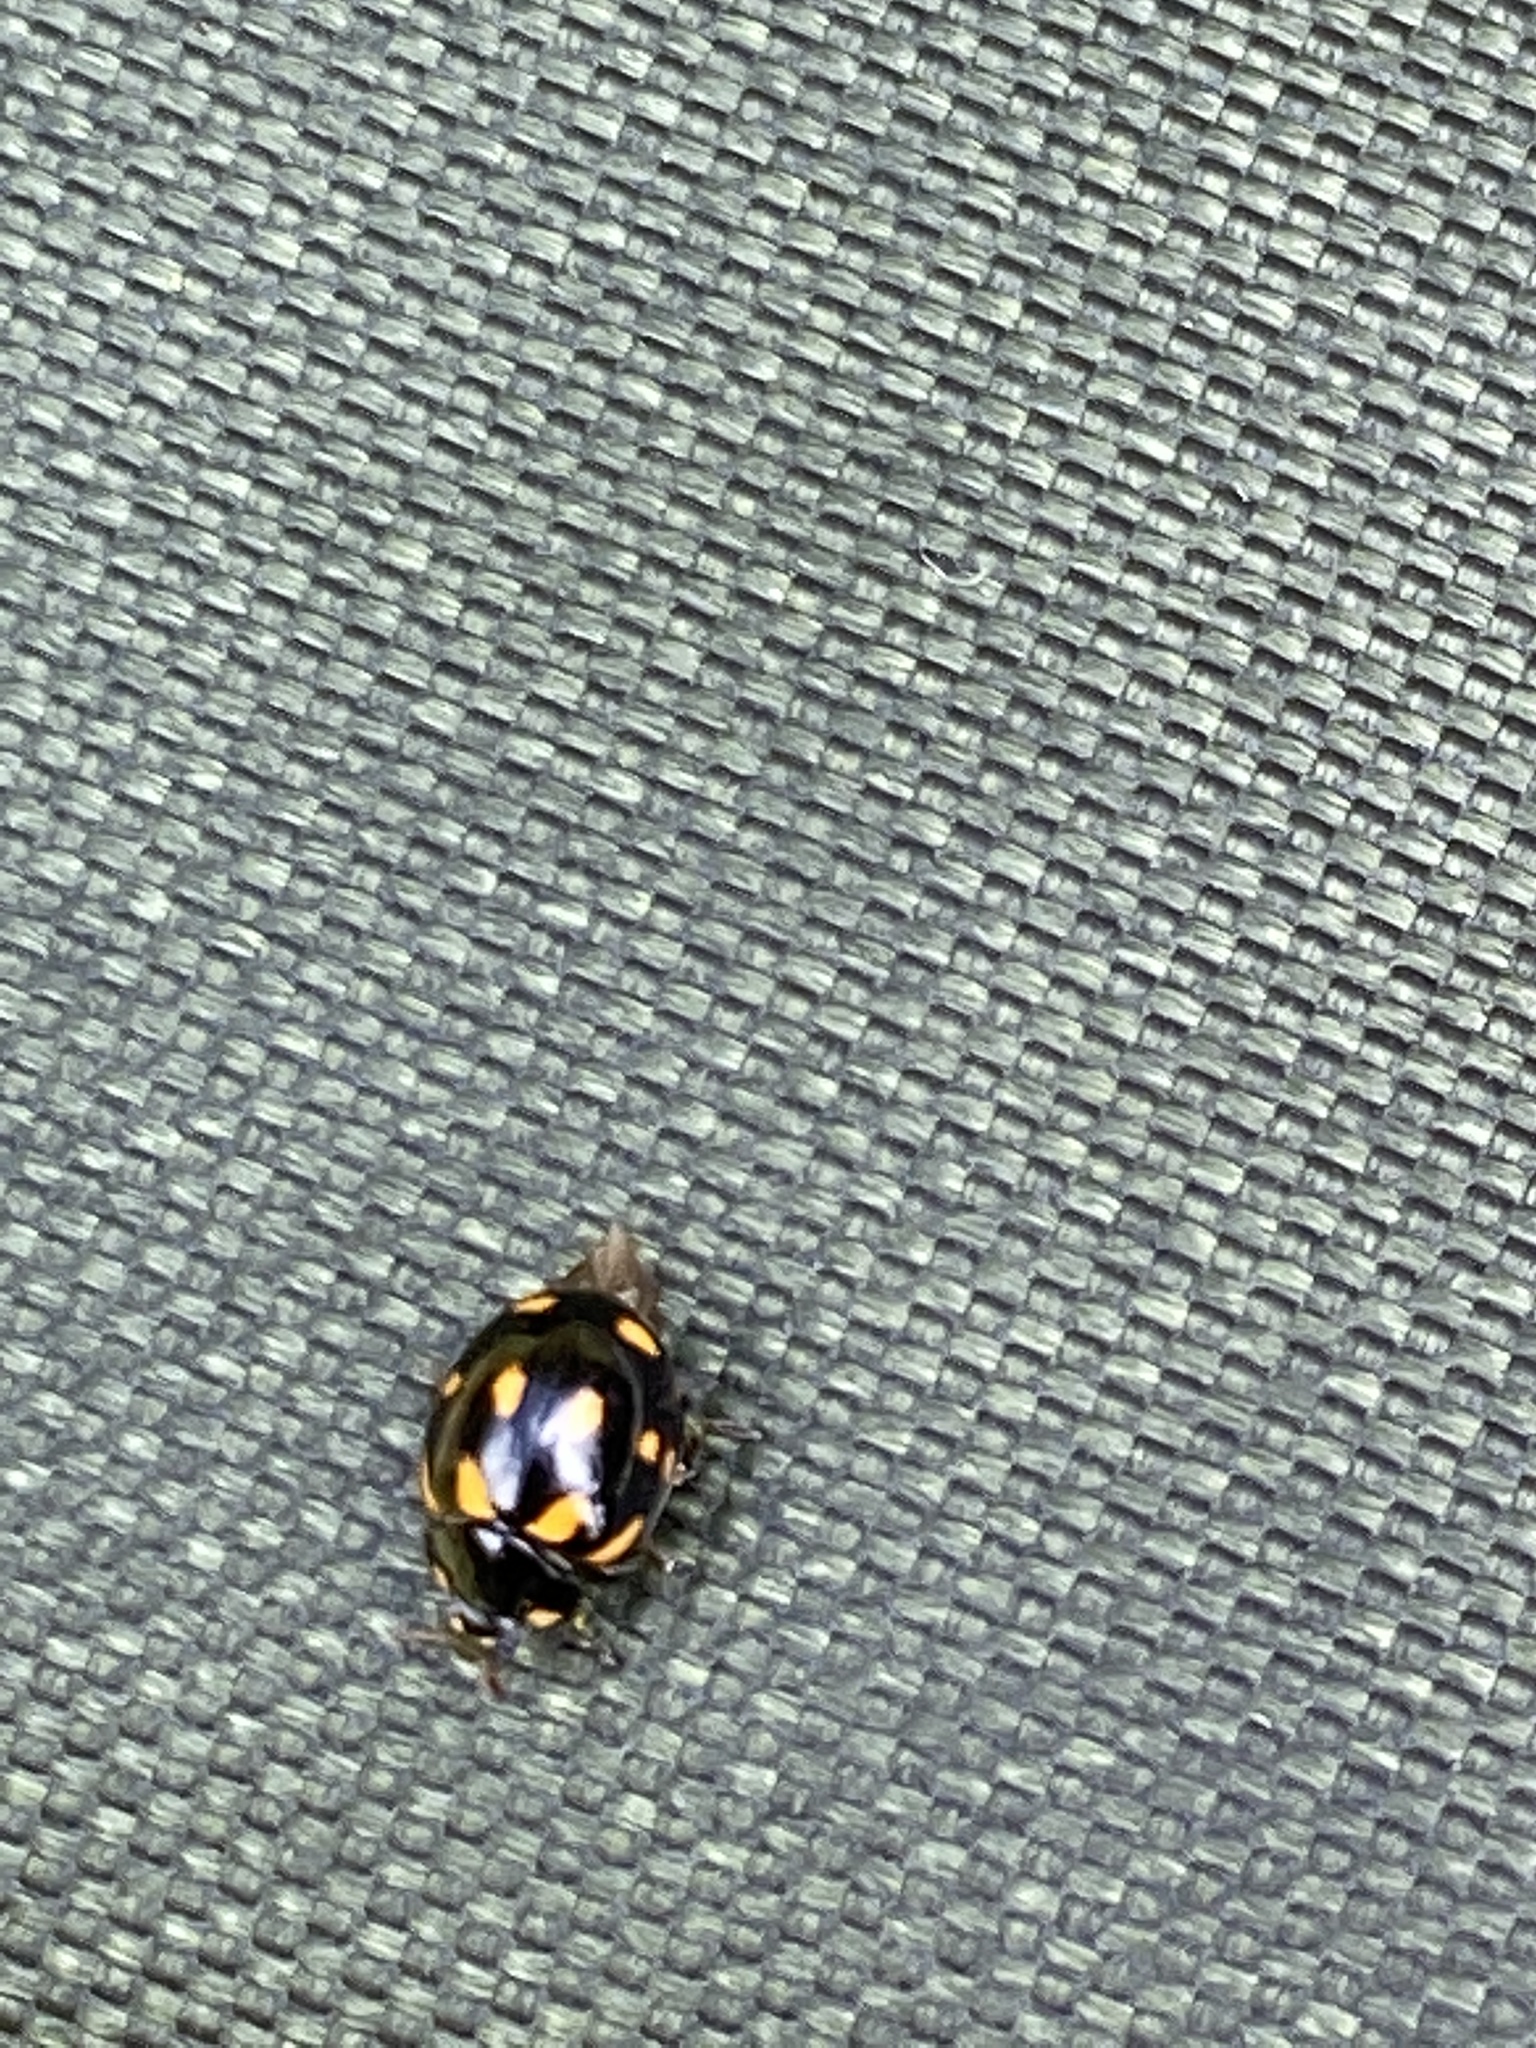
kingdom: Animalia
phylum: Arthropoda
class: Insecta
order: Coleoptera
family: Coccinellidae
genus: Coccinella
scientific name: Coccinella leonina
